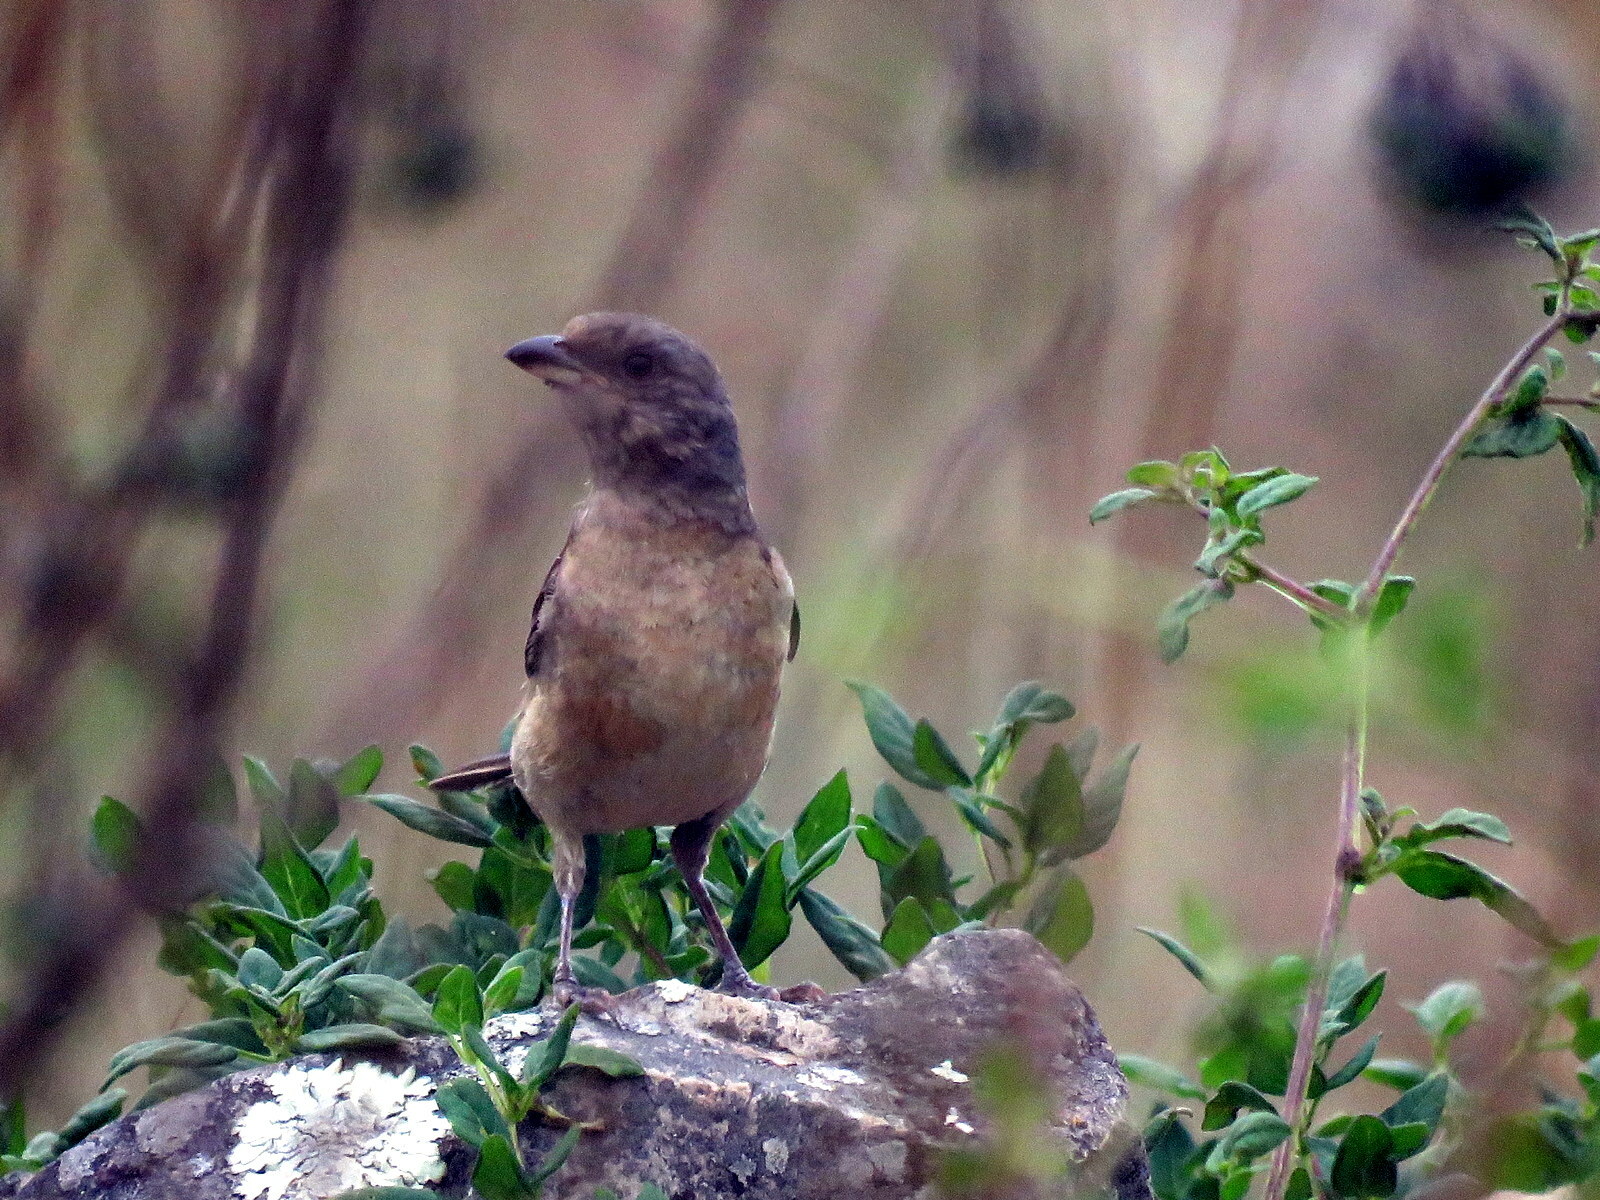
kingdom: Animalia
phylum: Chordata
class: Aves
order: Passeriformes
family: Thraupidae
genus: Rauenia
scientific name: Rauenia bonariensis
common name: Blue-and-yellow tanager
